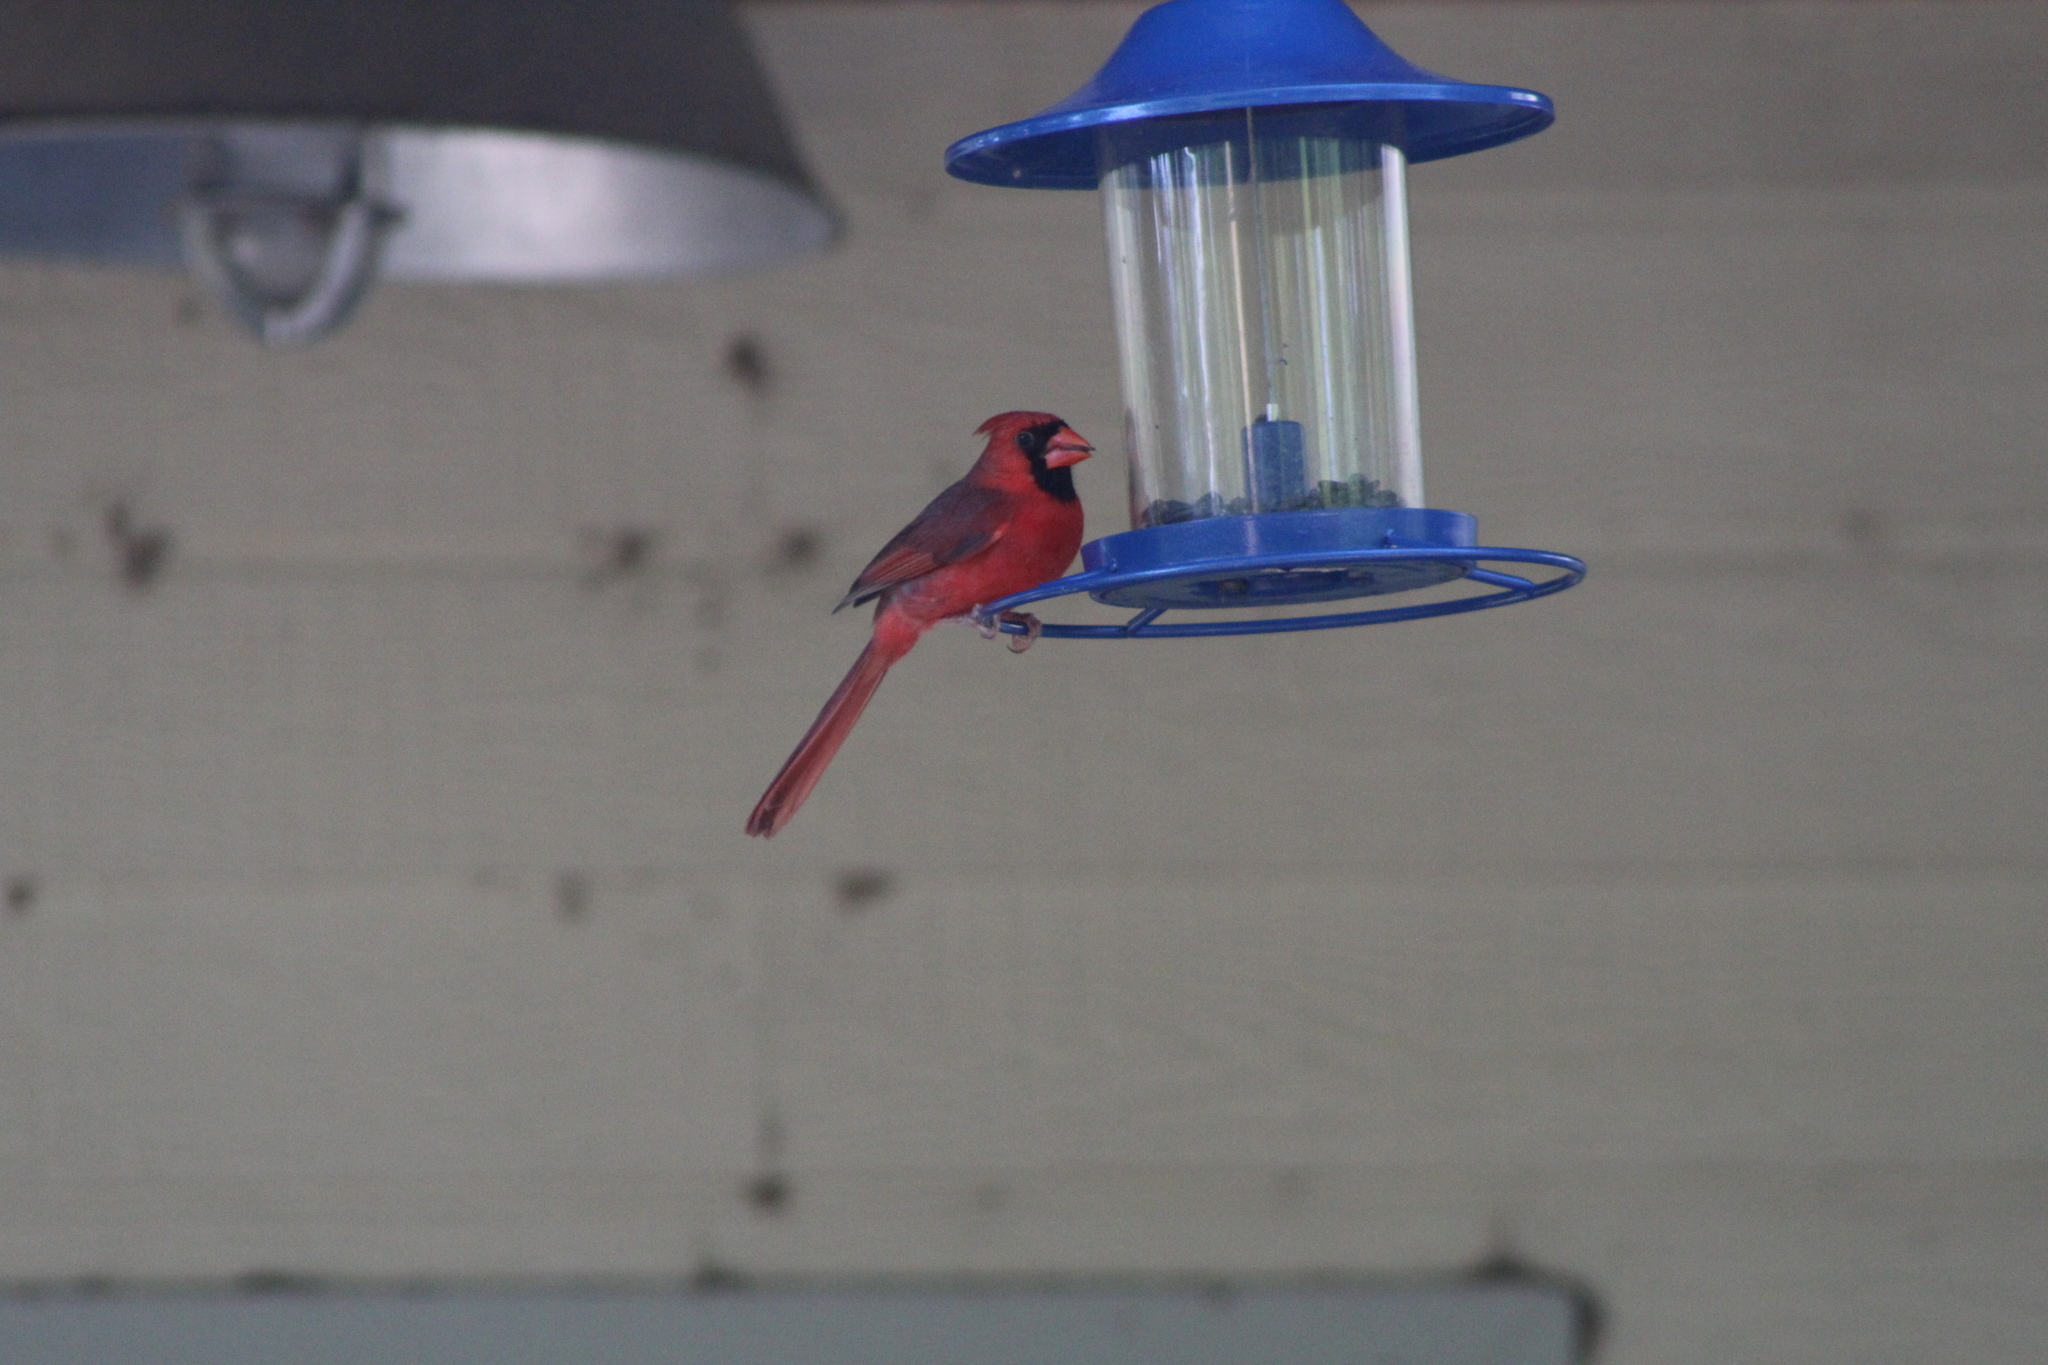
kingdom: Animalia
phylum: Chordata
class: Aves
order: Passeriformes
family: Cardinalidae
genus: Cardinalis
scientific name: Cardinalis cardinalis
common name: Northern cardinal
